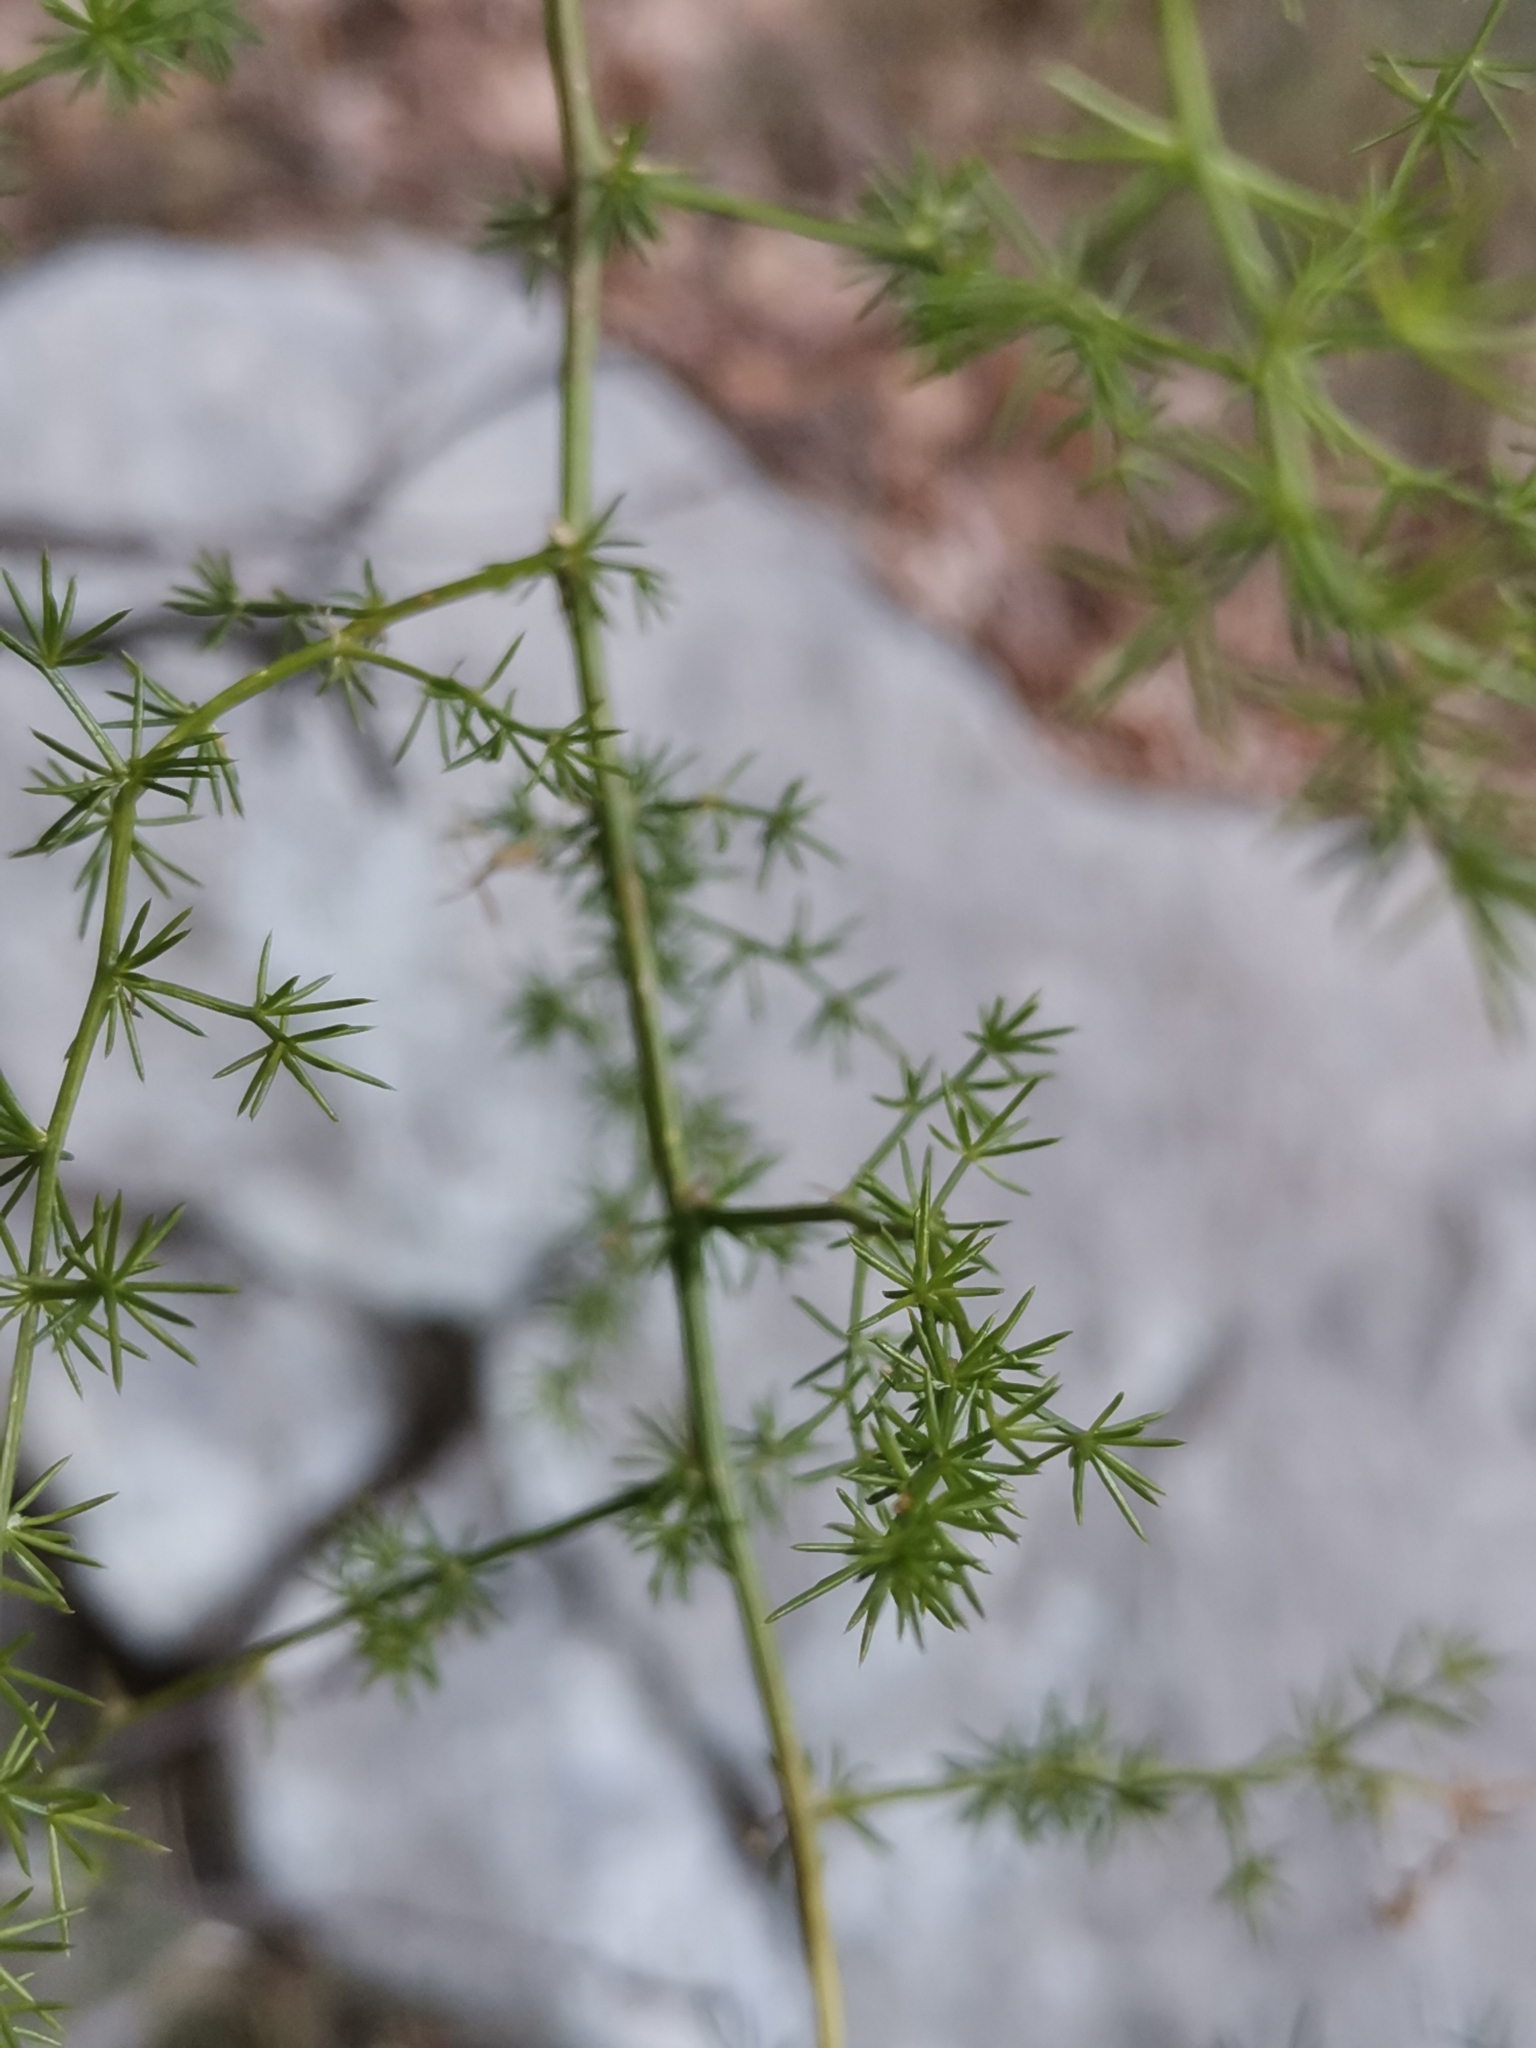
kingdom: Plantae
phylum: Tracheophyta
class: Liliopsida
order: Asparagales
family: Asparagaceae
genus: Asparagus
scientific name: Asparagus acutifolius
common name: Wild asparagus
